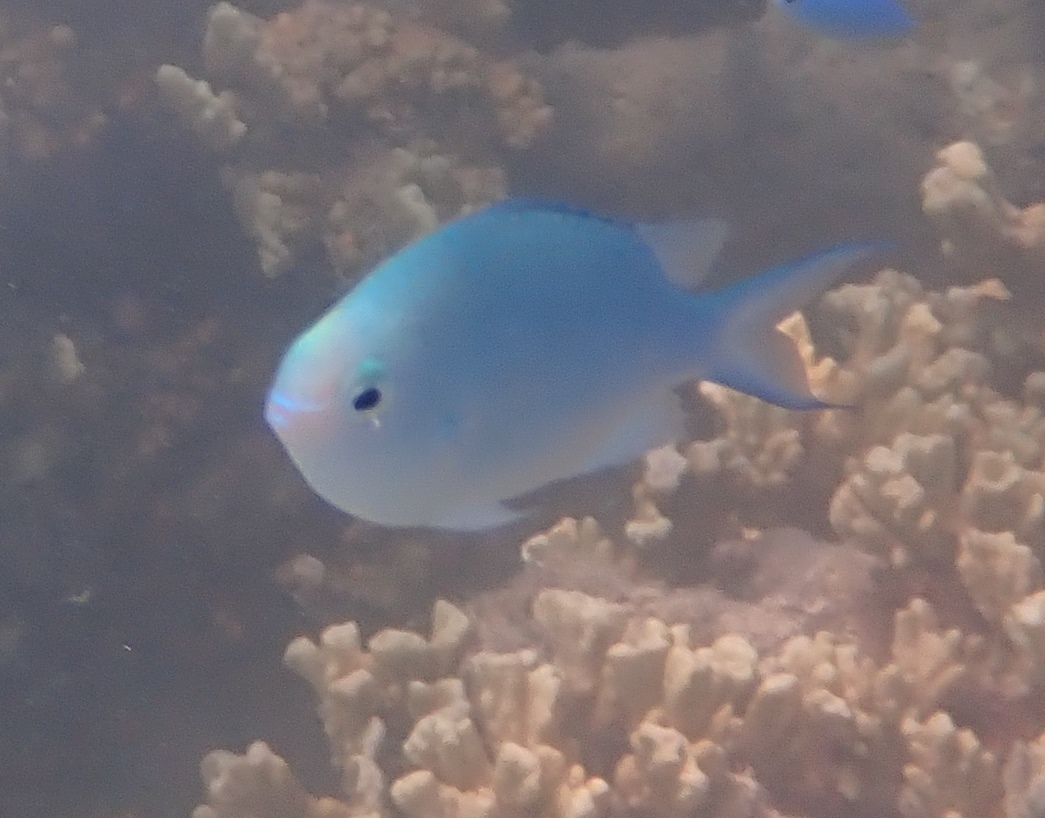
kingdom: Animalia
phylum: Chordata
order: Perciformes
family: Pomacentridae
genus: Chromis
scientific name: Chromis viridis
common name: Blue-green chromis
